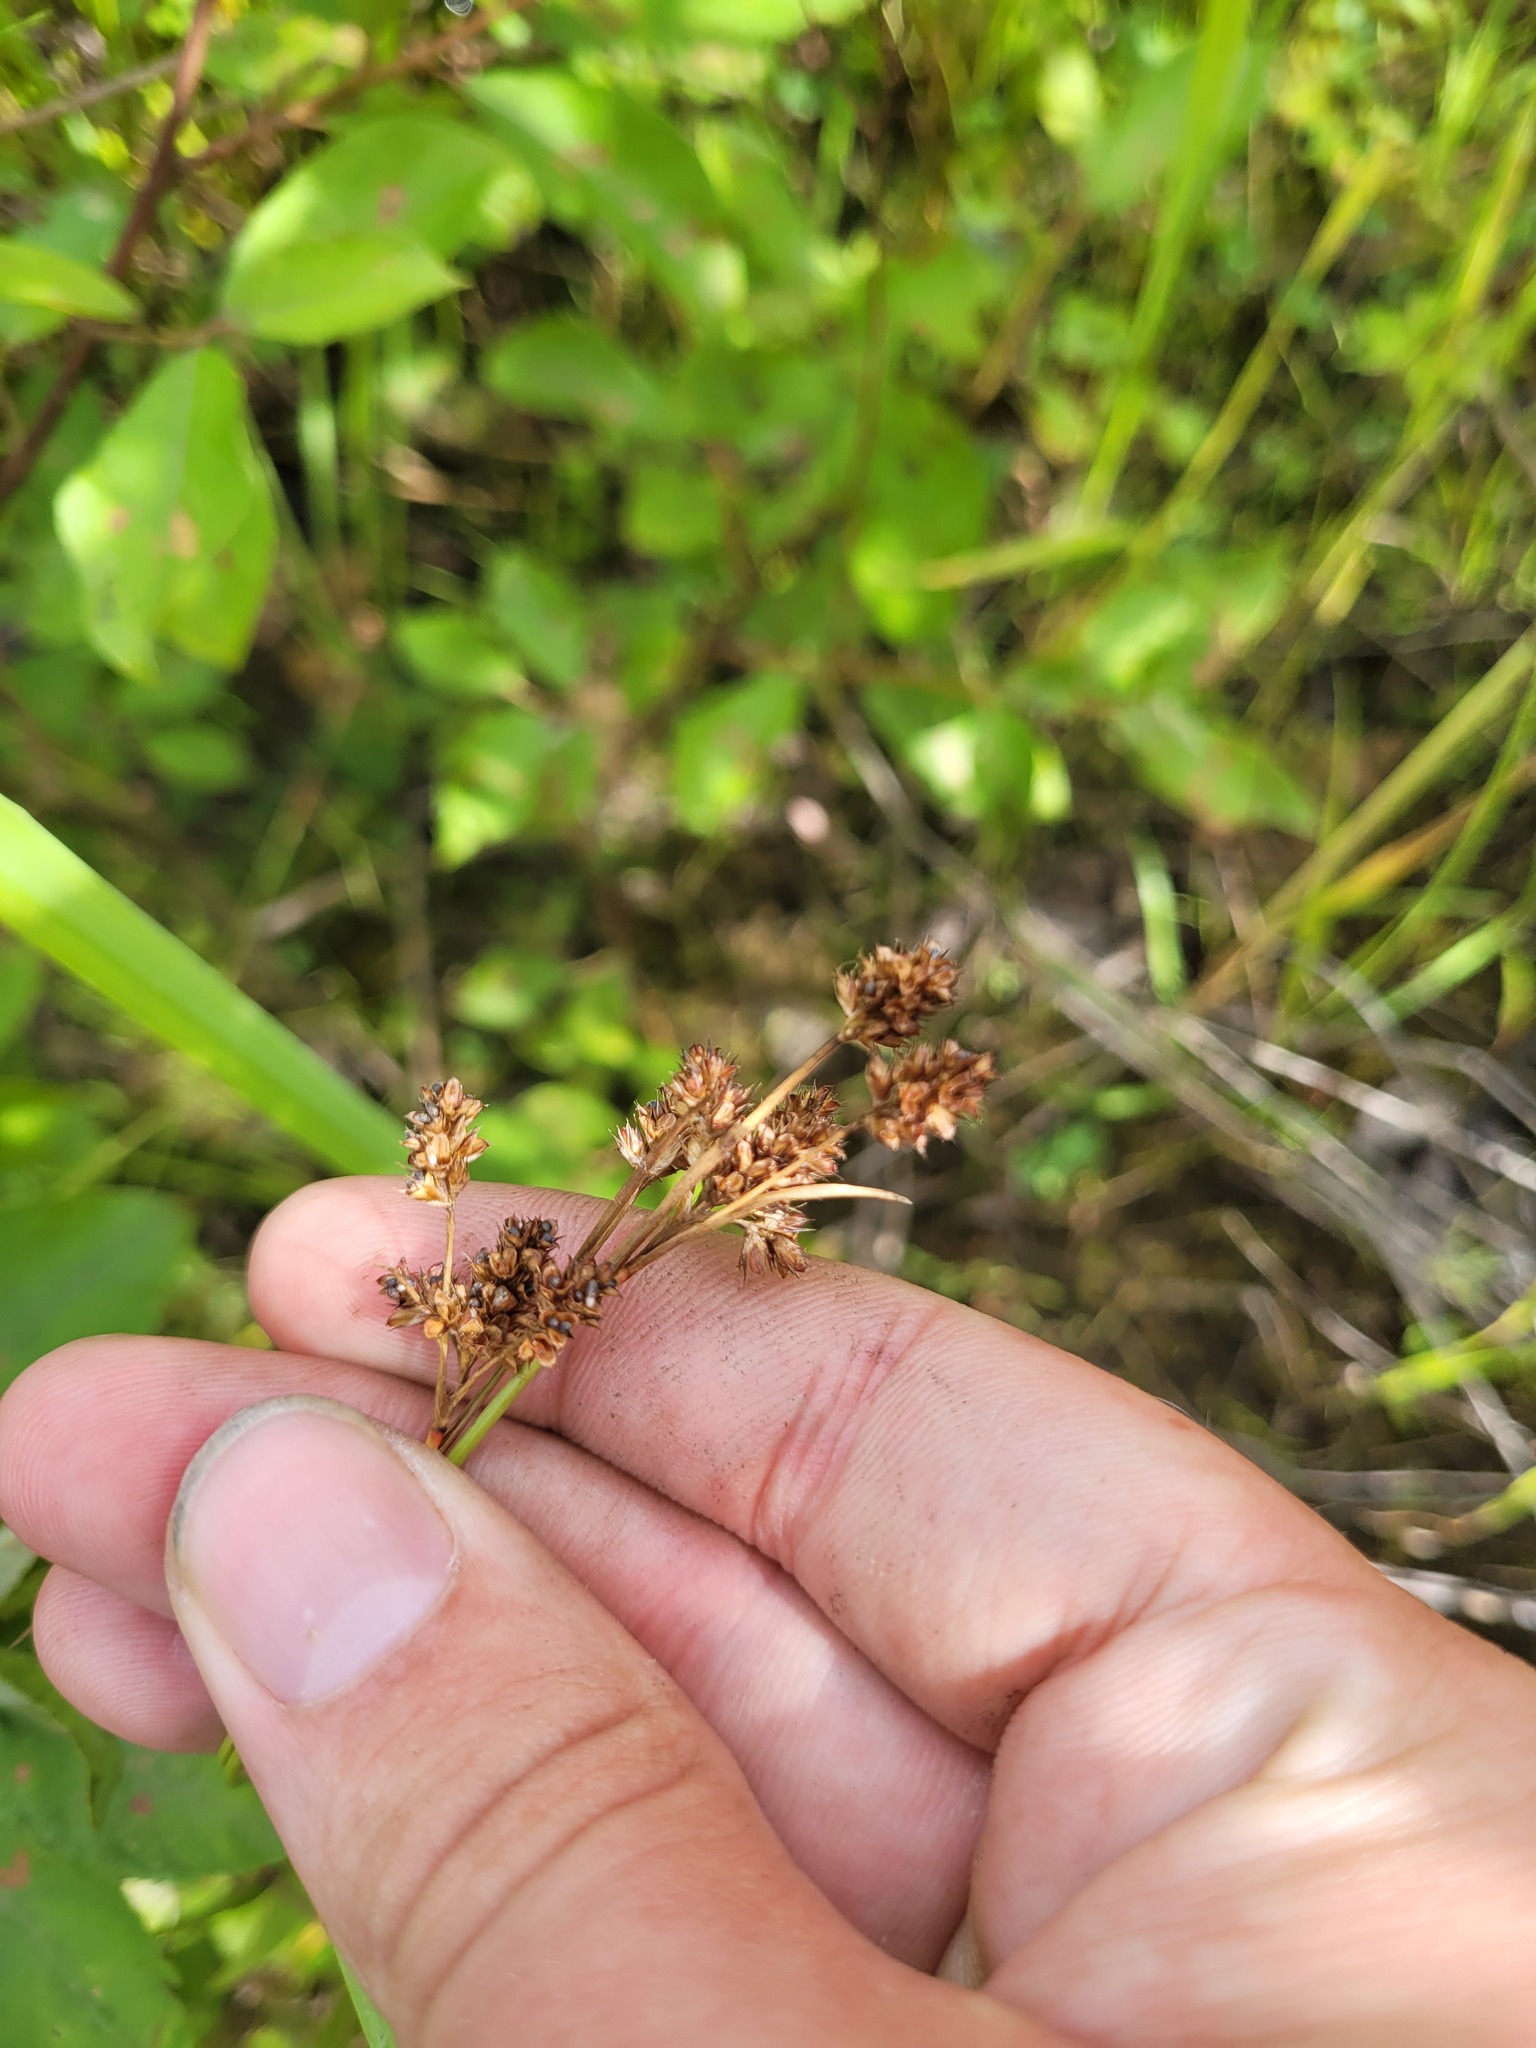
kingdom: Plantae
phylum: Tracheophyta
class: Liliopsida
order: Poales
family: Juncaceae
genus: Luzula
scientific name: Luzula multiflora
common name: Heath wood-rush
